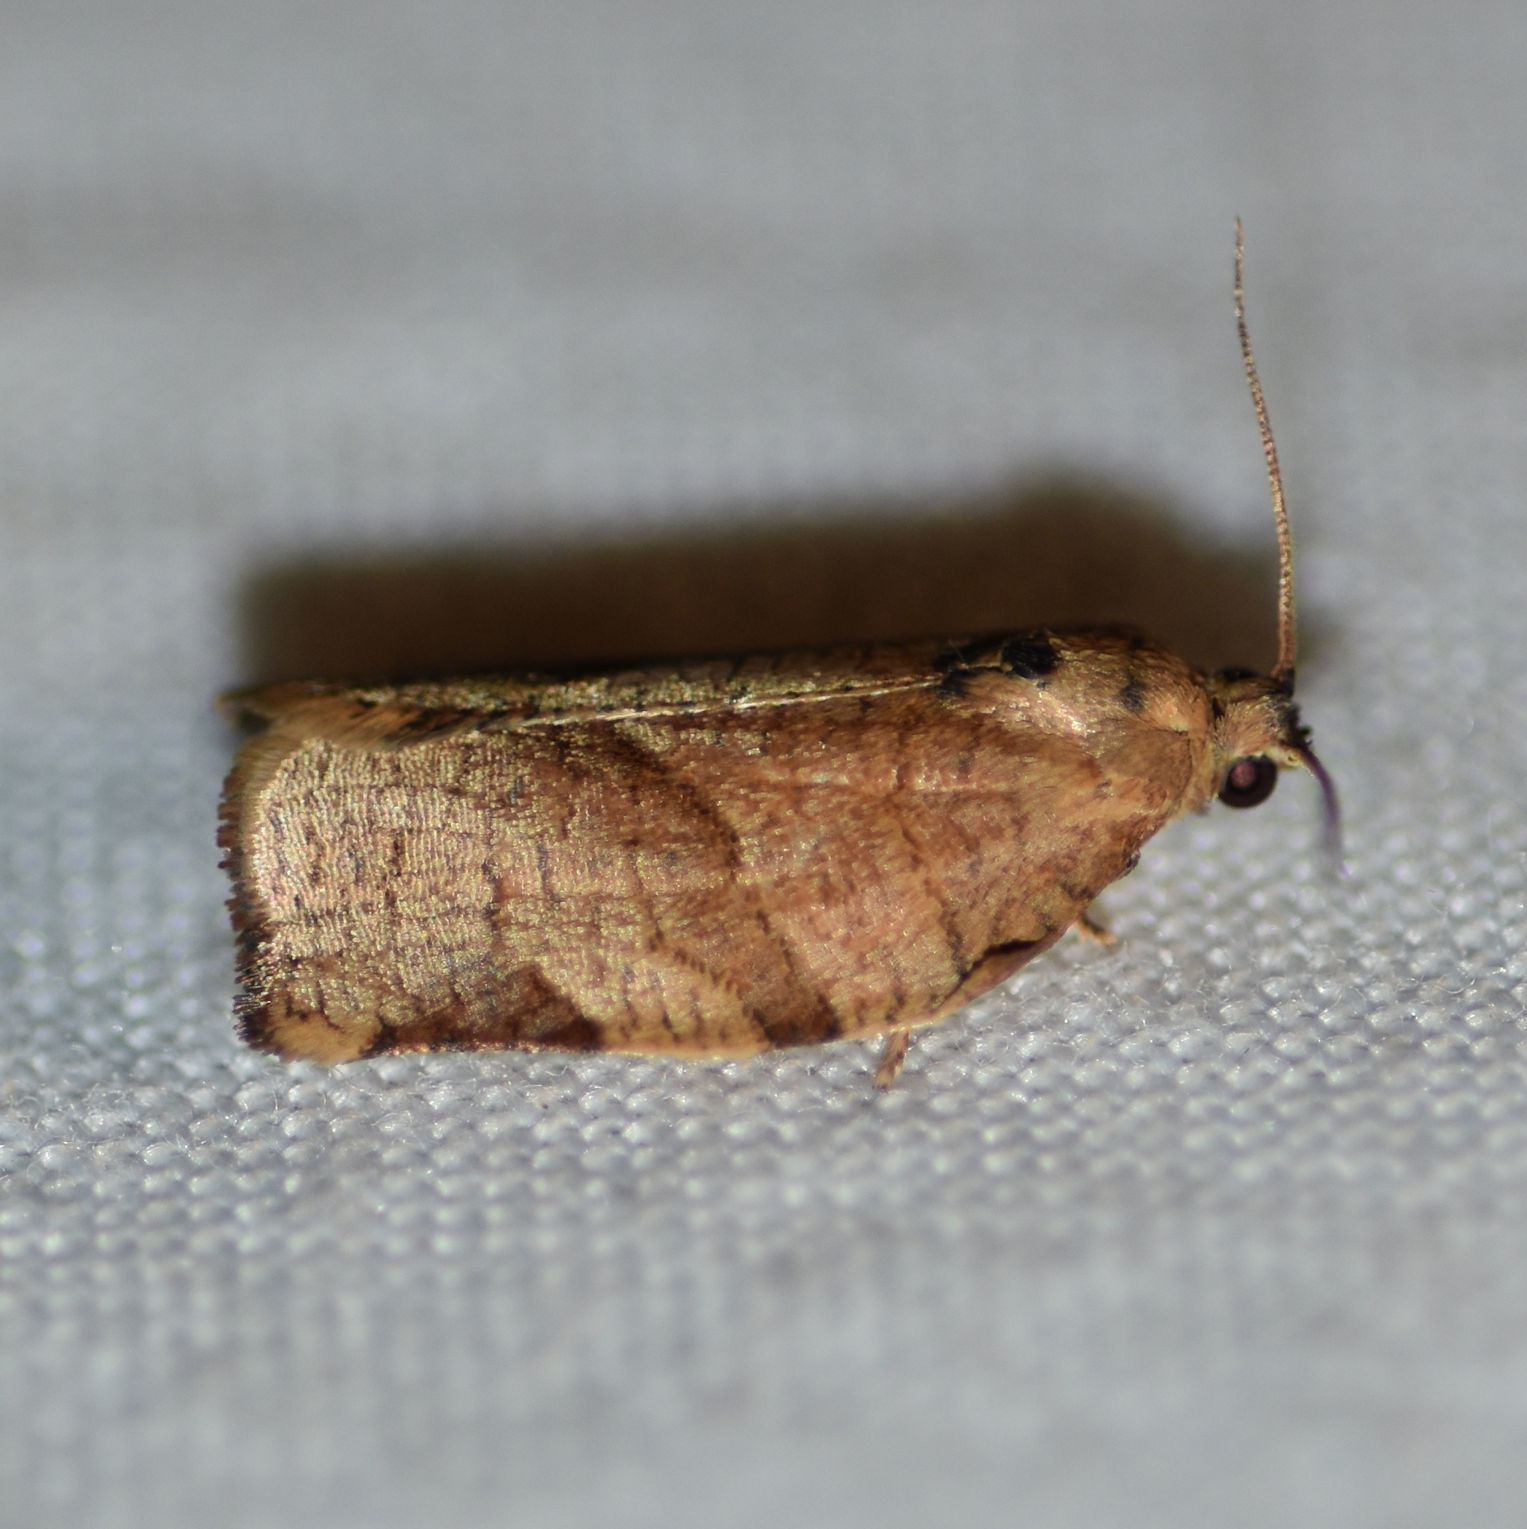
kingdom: Animalia
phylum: Arthropoda
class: Insecta
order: Lepidoptera
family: Tortricidae
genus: Choristoneura
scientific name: Choristoneura rosaceana
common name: Oblique-banded leafroller moth
